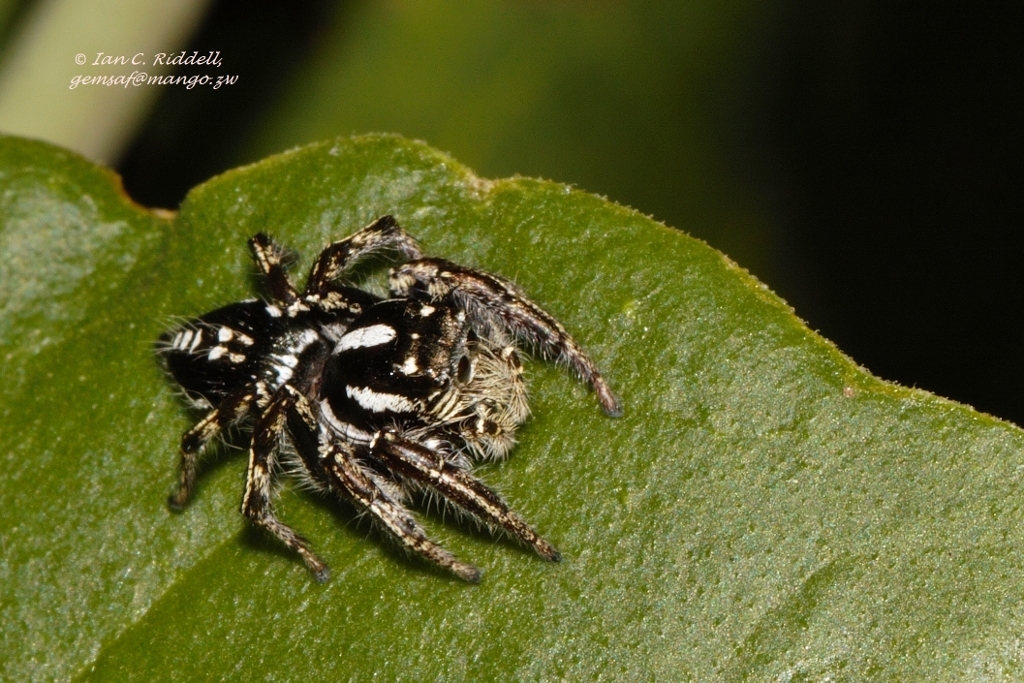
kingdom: Animalia
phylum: Arthropoda
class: Arachnida
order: Araneae
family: Salticidae
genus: Hyllus
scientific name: Hyllus argyrotoxus
